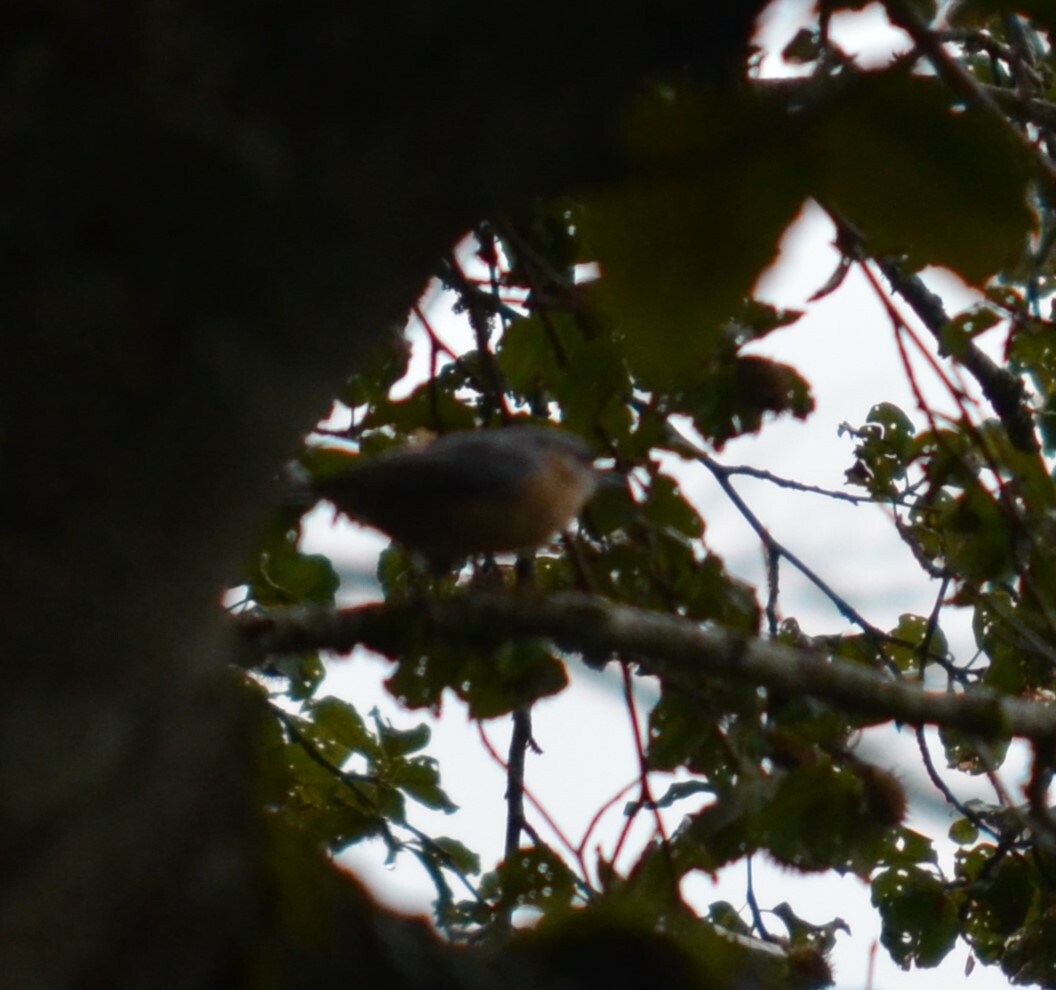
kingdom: Animalia
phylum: Chordata
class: Aves
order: Passeriformes
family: Sittidae
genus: Sitta
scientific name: Sitta europaea
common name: Eurasian nuthatch
